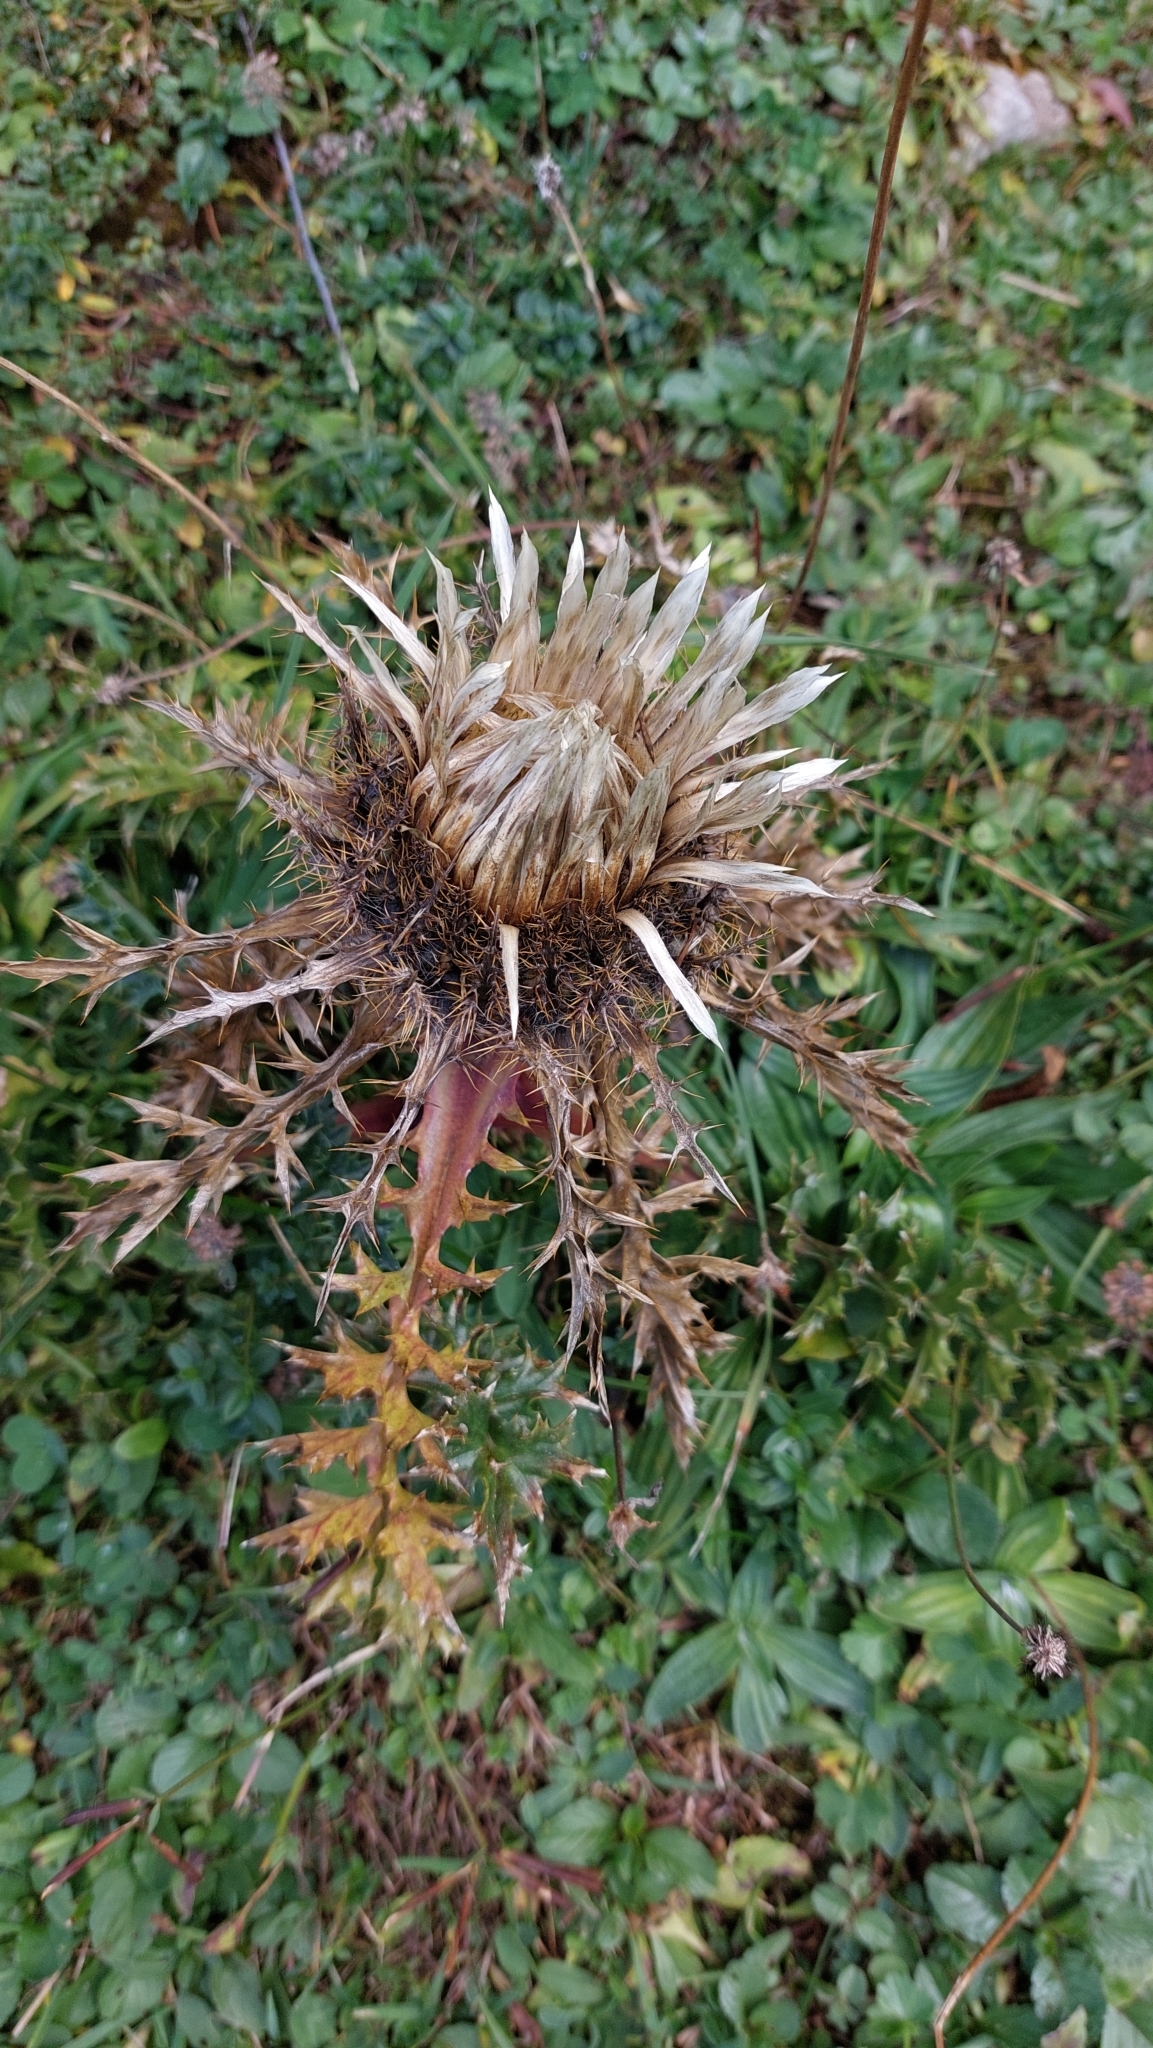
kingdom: Plantae
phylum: Tracheophyta
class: Magnoliopsida
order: Asterales
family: Asteraceae
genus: Carlina
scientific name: Carlina acaulis
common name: Stemless carline thistle
